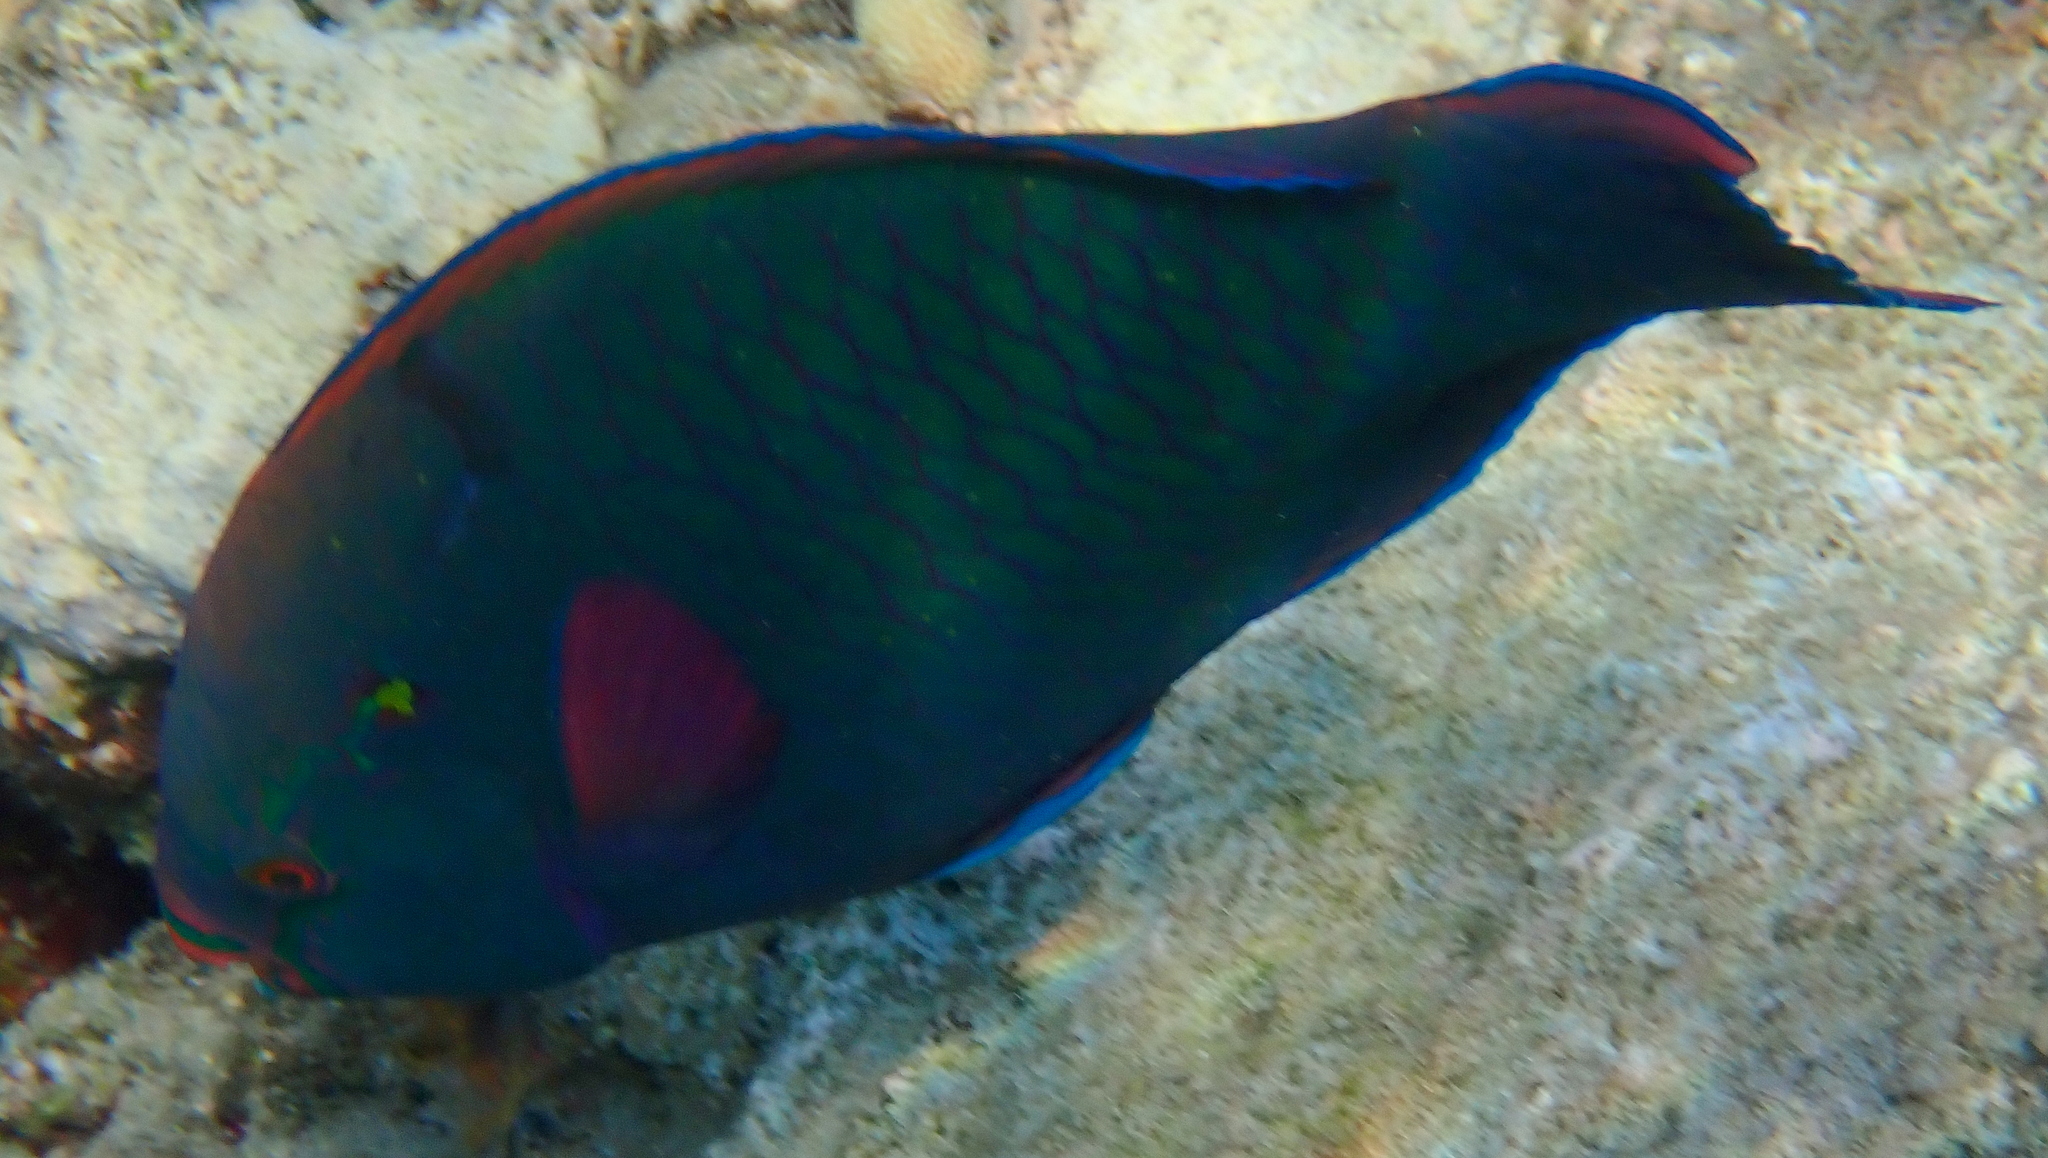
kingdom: Animalia
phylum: Chordata
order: Perciformes
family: Scaridae
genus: Scarus
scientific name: Scarus niger
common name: Dusky parrotfish
